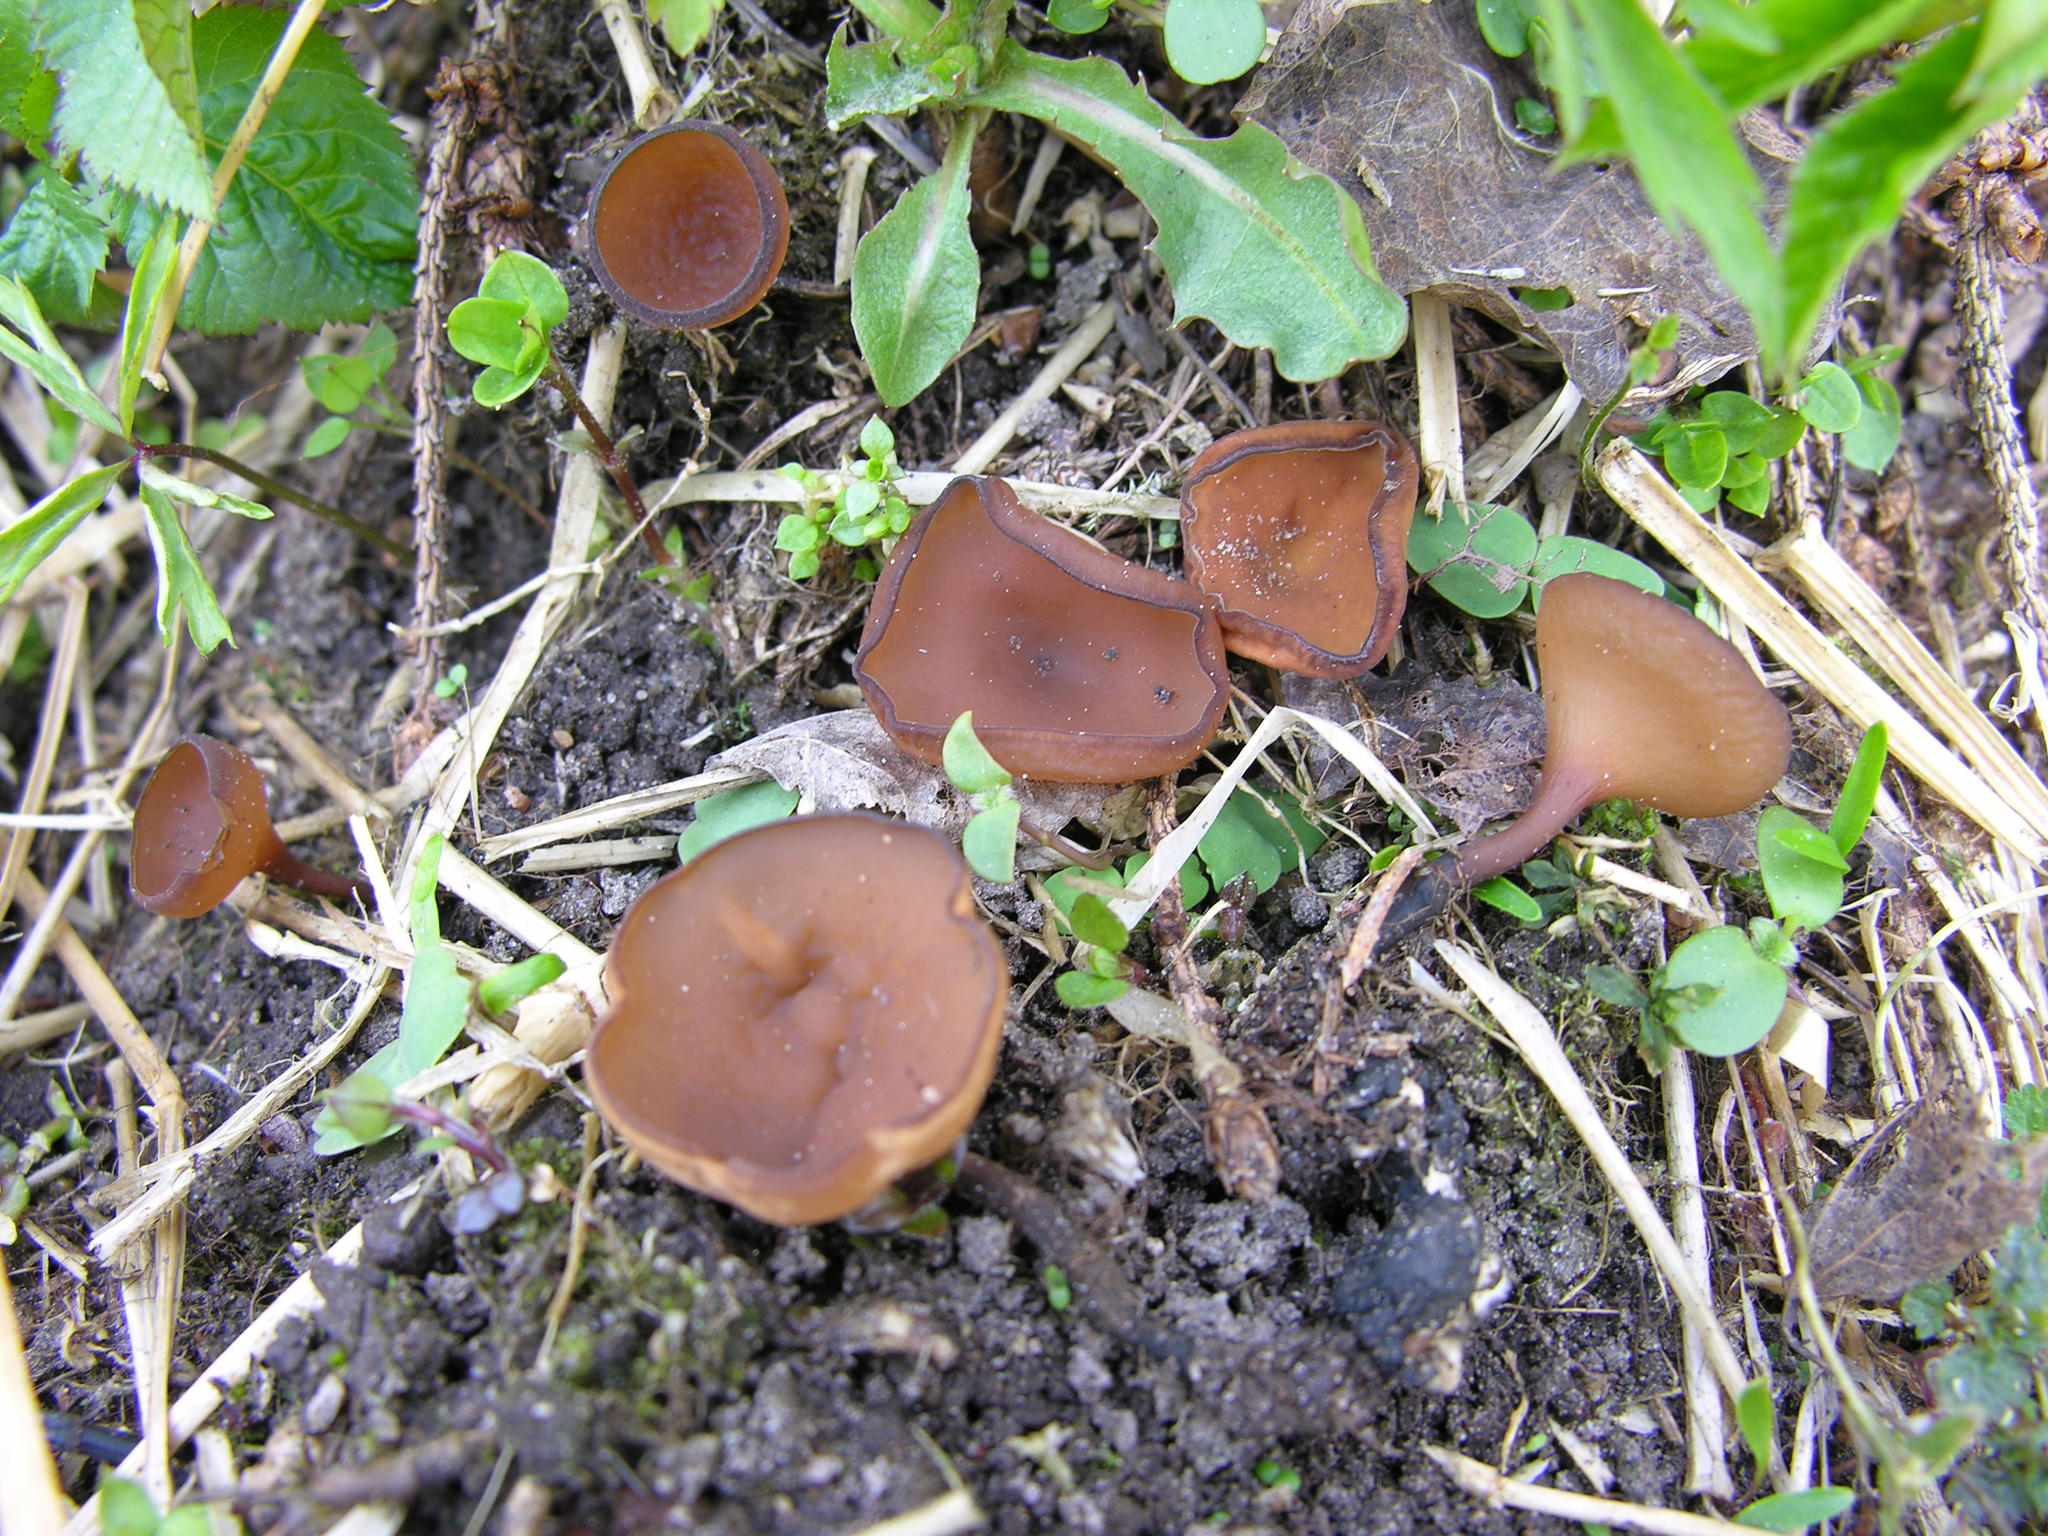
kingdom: Fungi
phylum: Ascomycota
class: Leotiomycetes
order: Helotiales
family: Sclerotiniaceae
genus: Dumontinia
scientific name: Dumontinia tuberosa
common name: Anemone cup
